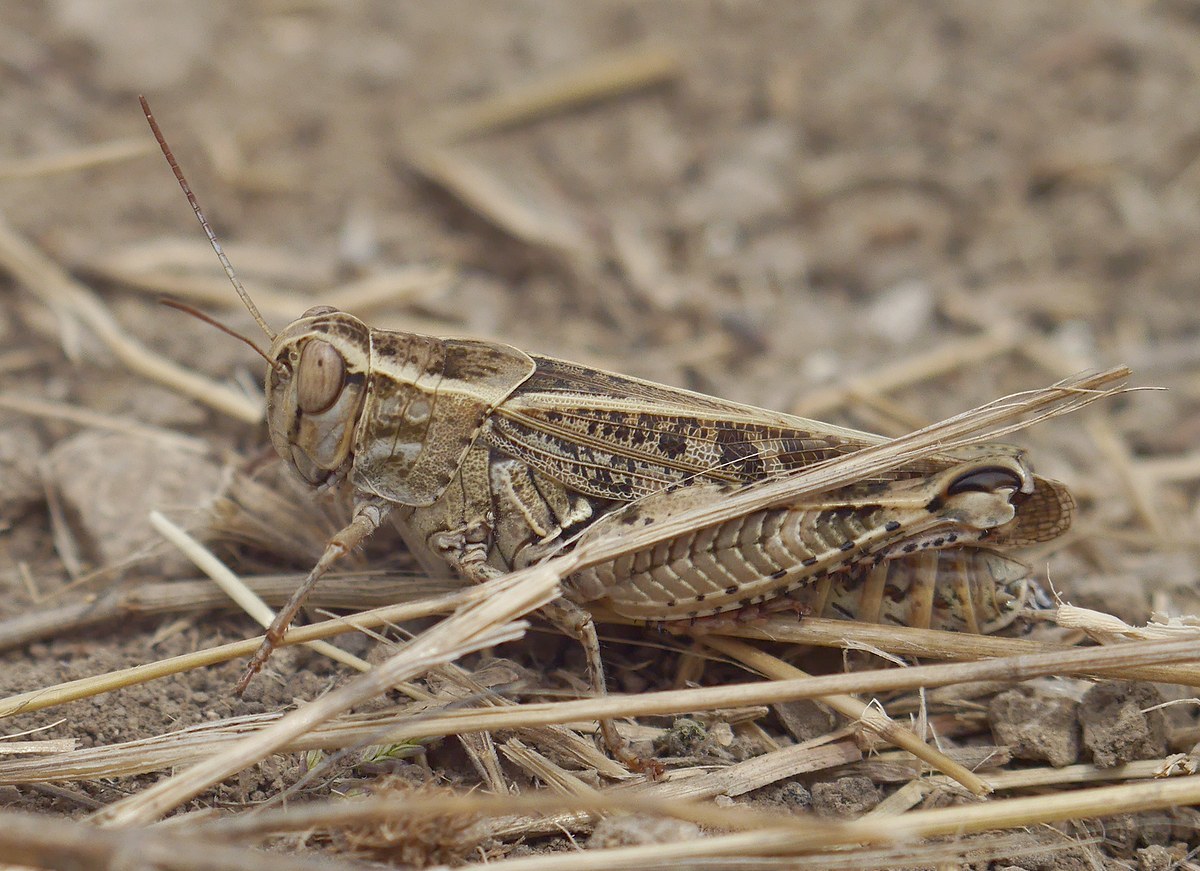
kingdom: Animalia
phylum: Arthropoda
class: Insecta
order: Orthoptera
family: Acrididae
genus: Calliptamus
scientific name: Calliptamus italicus
